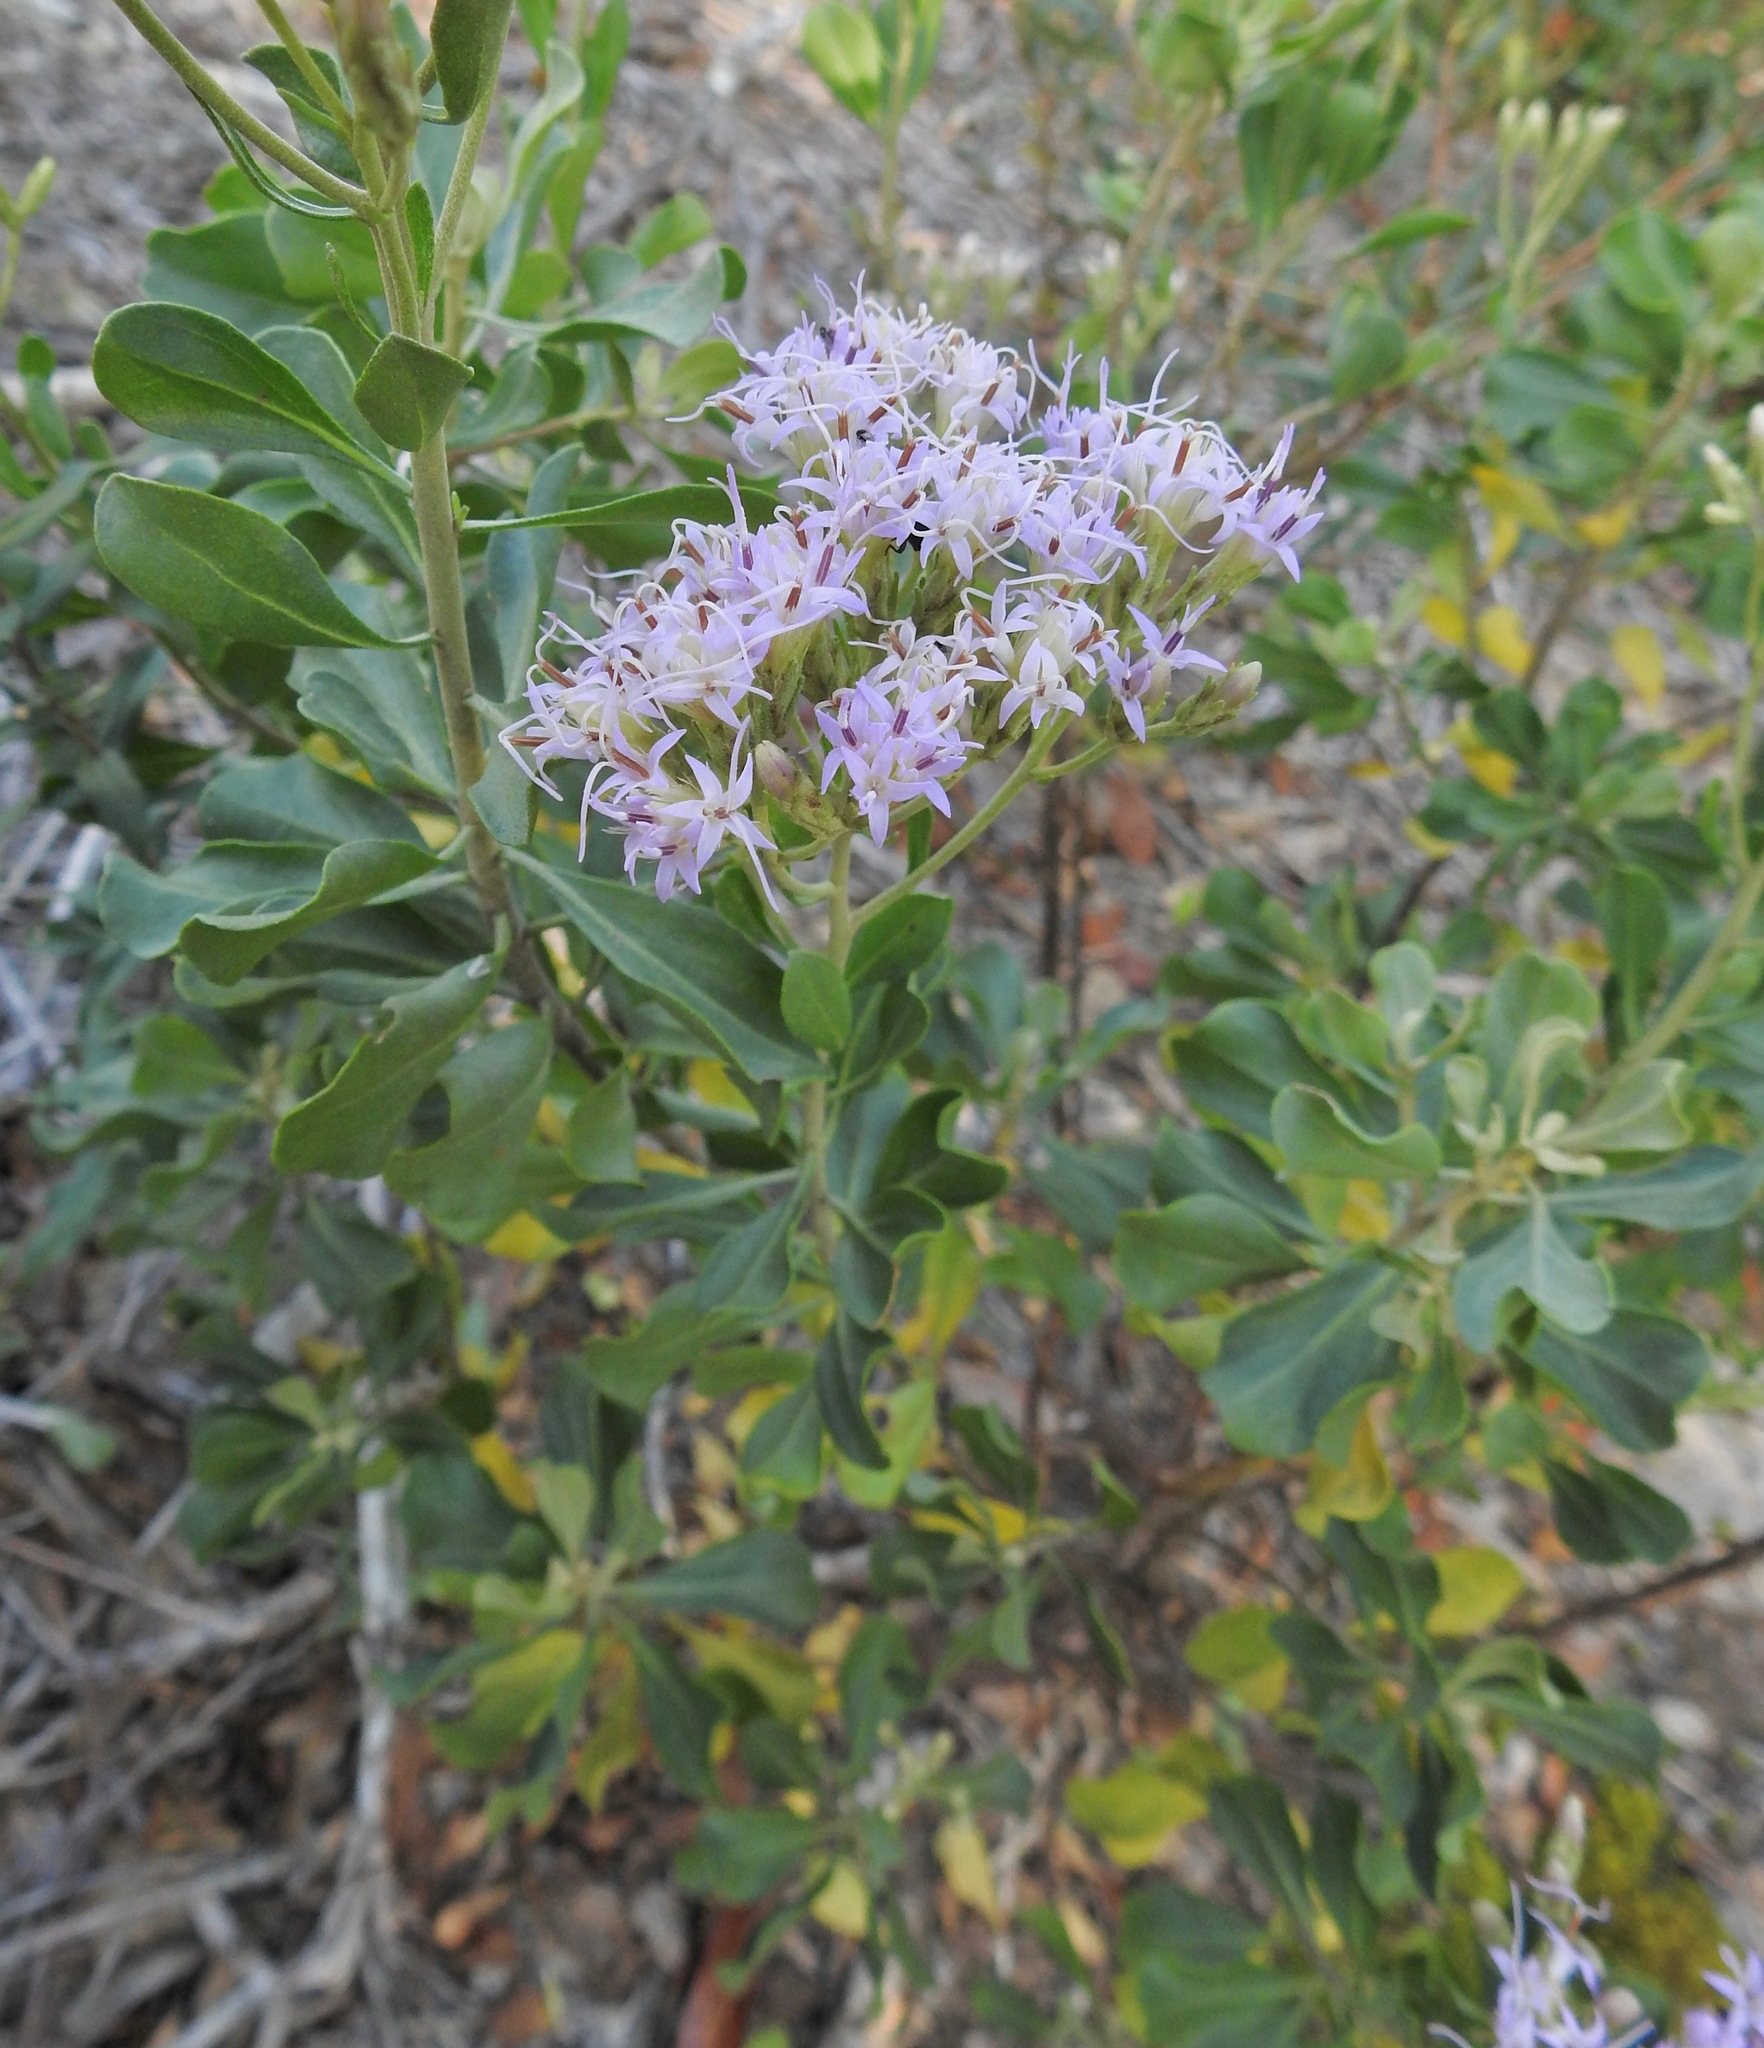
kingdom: Plantae
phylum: Tracheophyta
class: Magnoliopsida
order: Asterales
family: Asteraceae
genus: Garberia
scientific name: Garberia heterophylla
